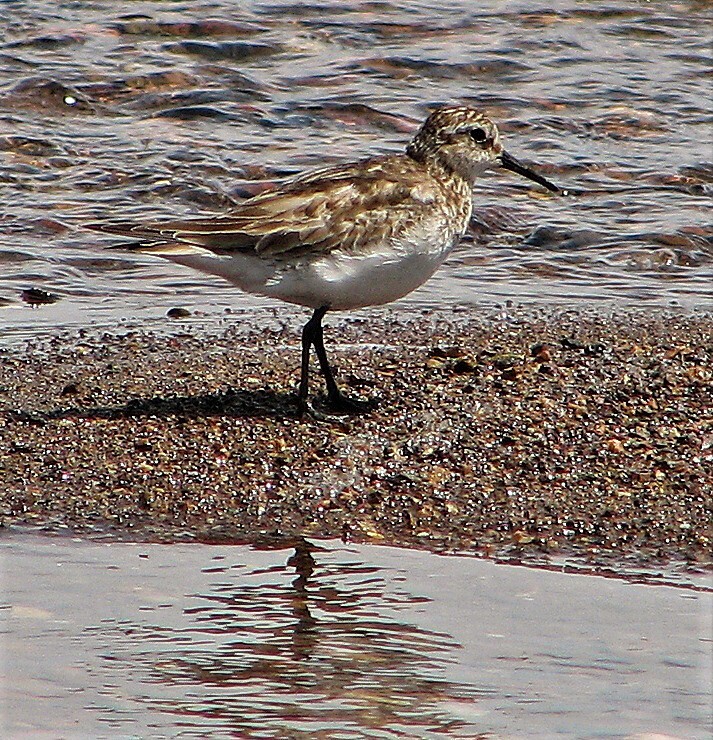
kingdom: Animalia
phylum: Chordata
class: Aves
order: Charadriiformes
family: Scolopacidae
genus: Calidris
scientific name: Calidris bairdii
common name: Baird's sandpiper
